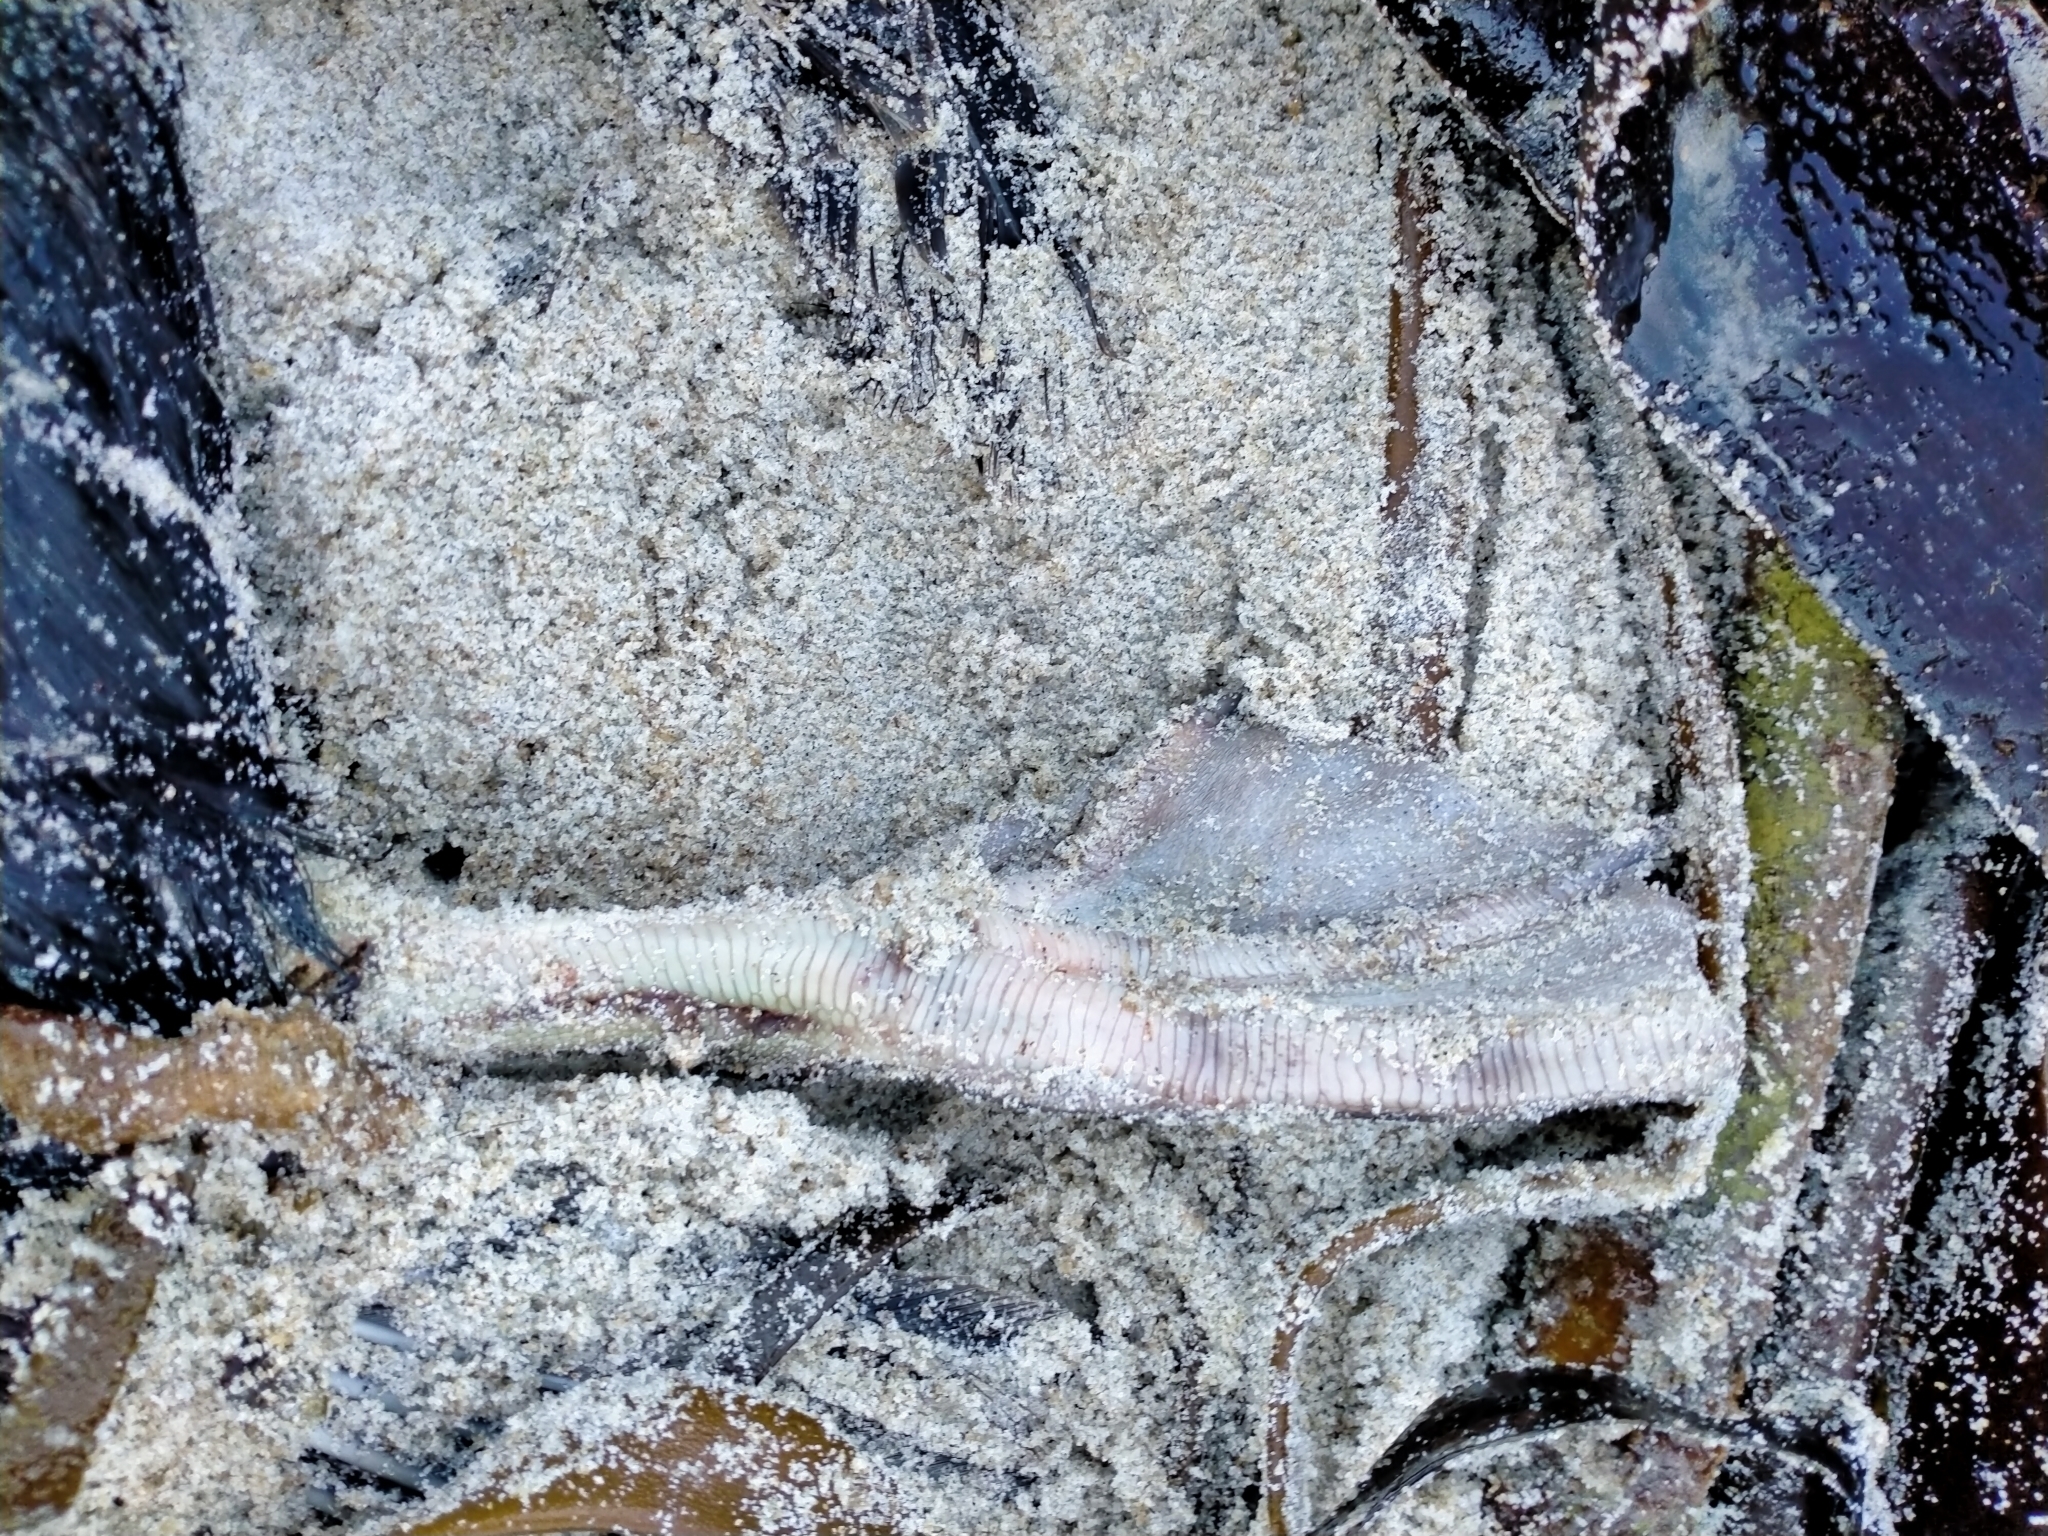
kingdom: Animalia
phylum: Chordata
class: Aves
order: Suliformes
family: Phalacrocoracidae
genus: Leucocarbo
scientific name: Leucocarbo chalconotus
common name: Stewart shag
